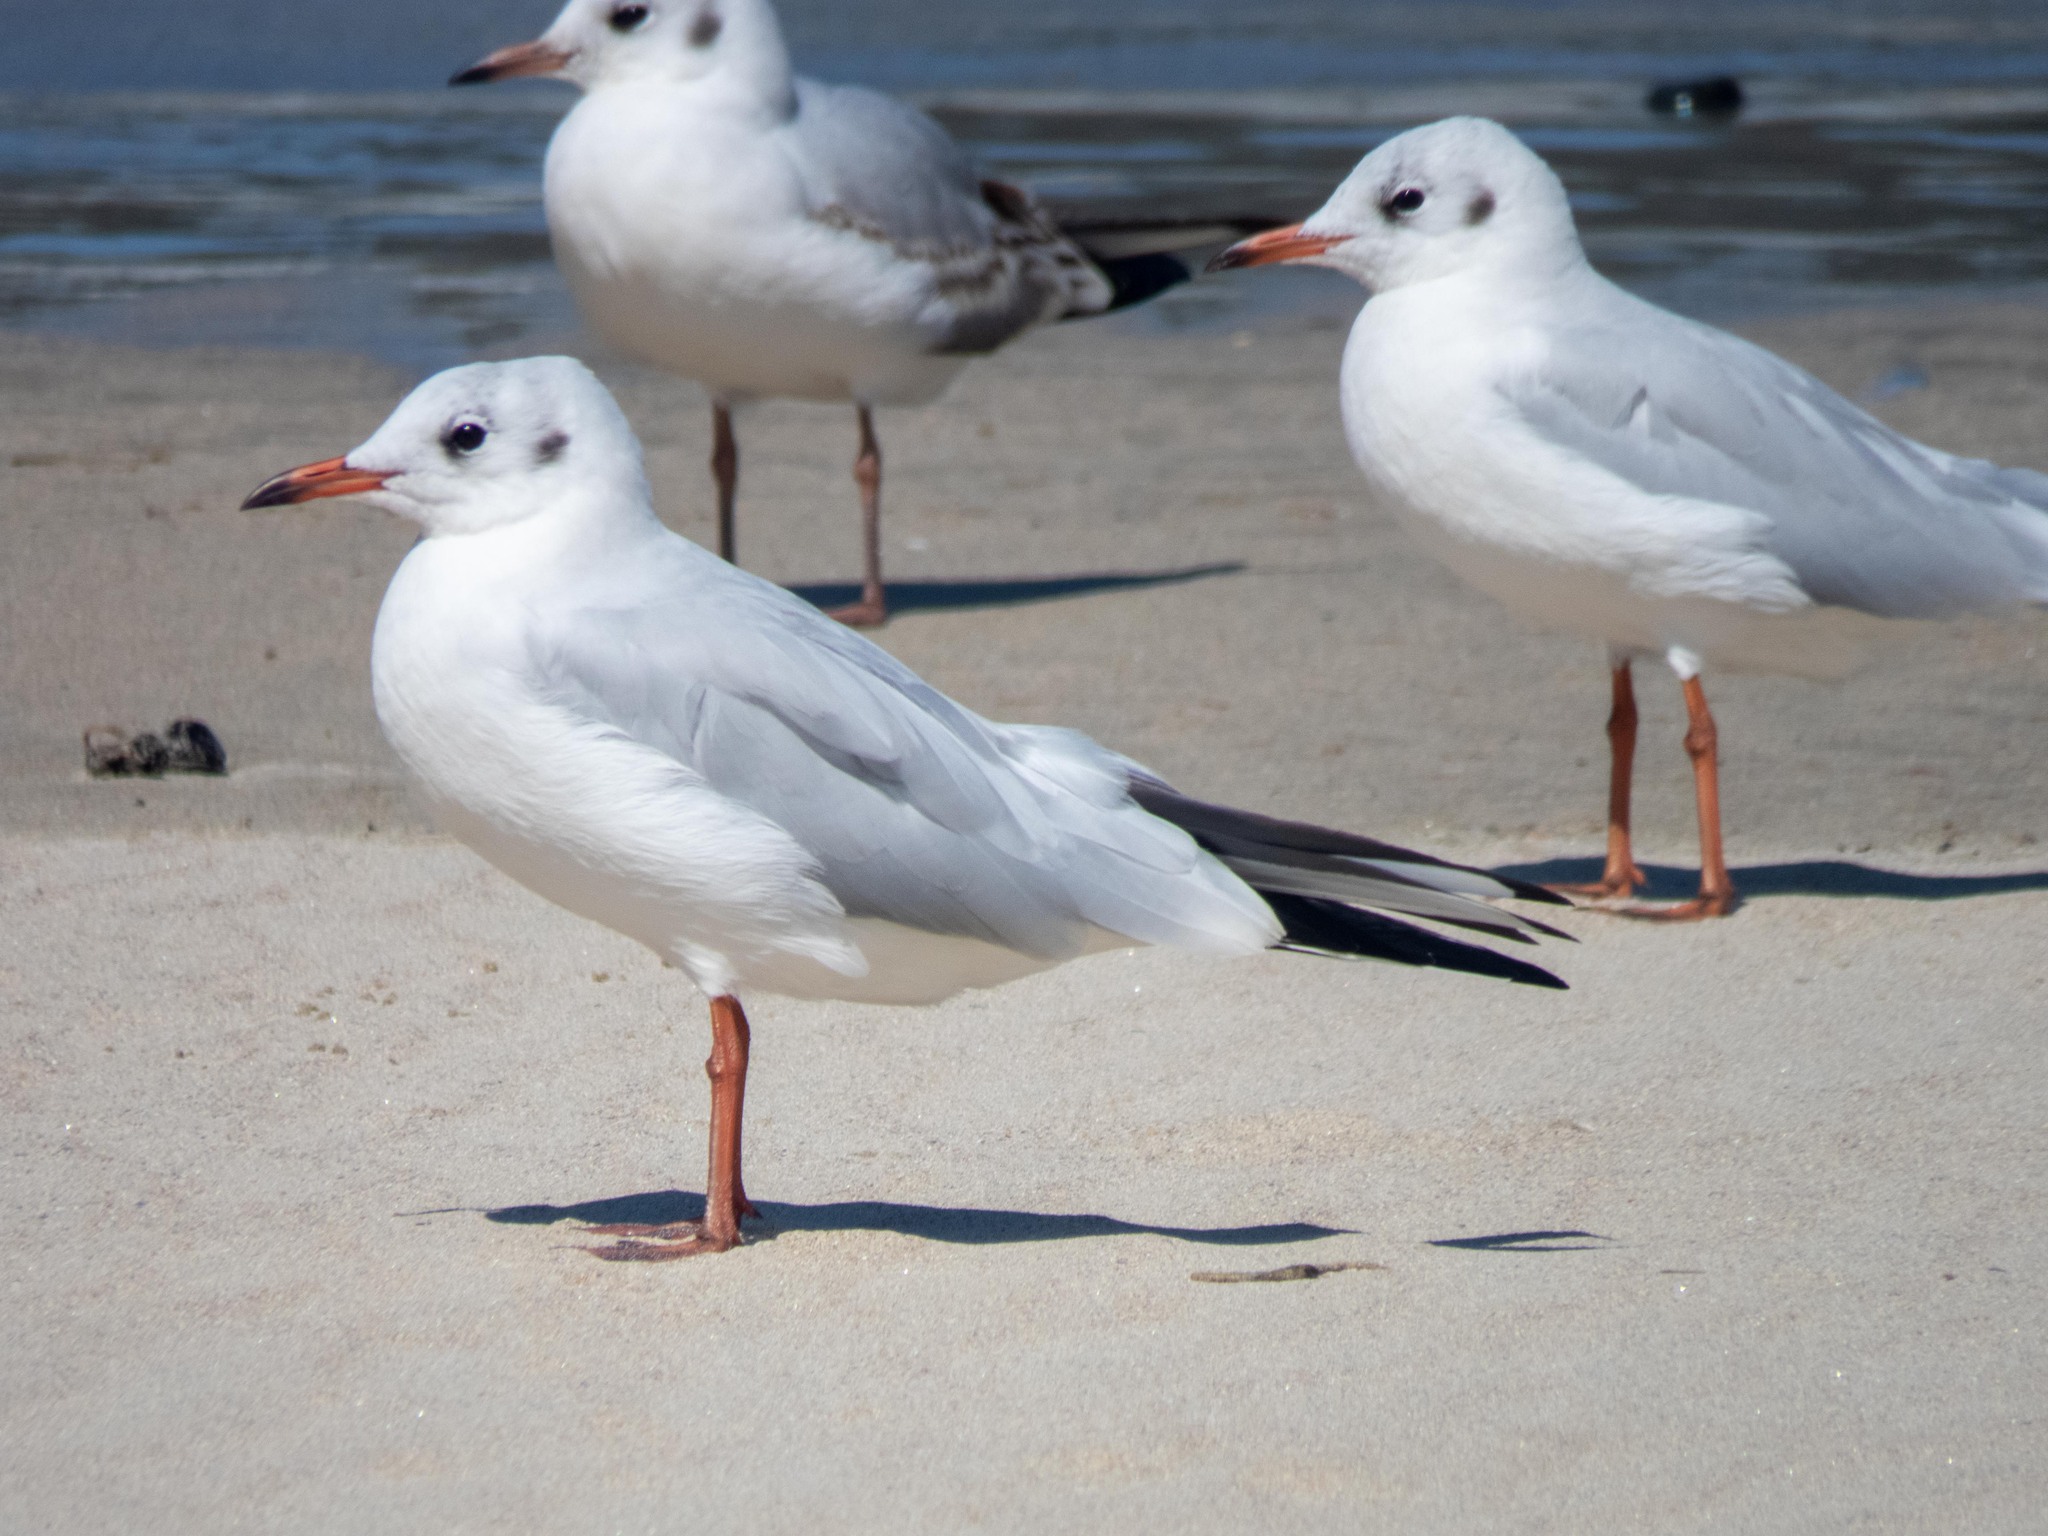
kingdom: Animalia
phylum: Chordata
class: Aves
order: Charadriiformes
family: Laridae
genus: Chroicocephalus
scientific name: Chroicocephalus ridibundus
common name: Black-headed gull
